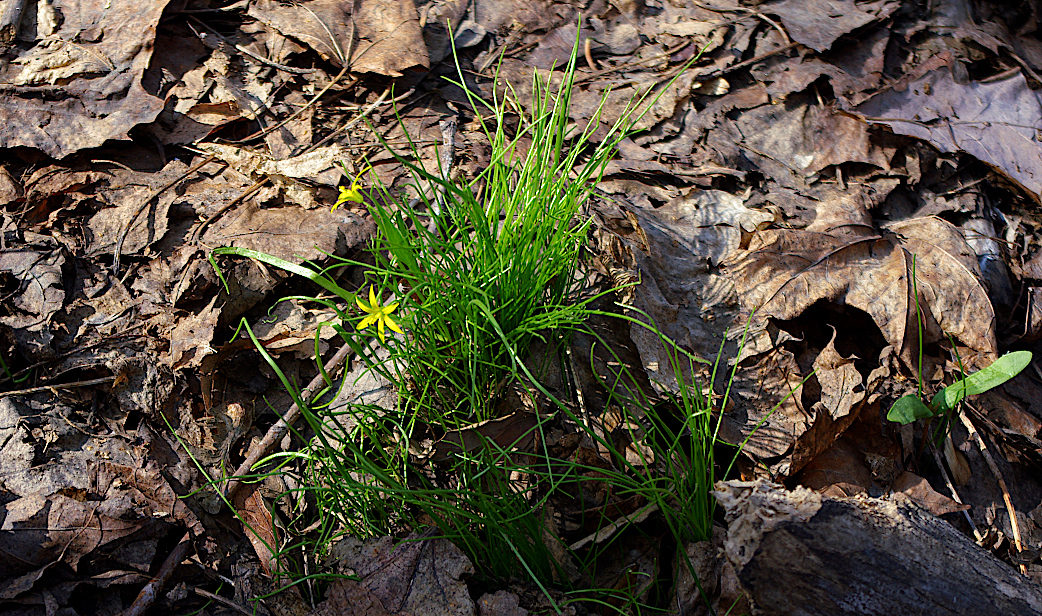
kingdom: Plantae
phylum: Tracheophyta
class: Liliopsida
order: Liliales
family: Liliaceae
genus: Gagea
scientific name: Gagea minima
